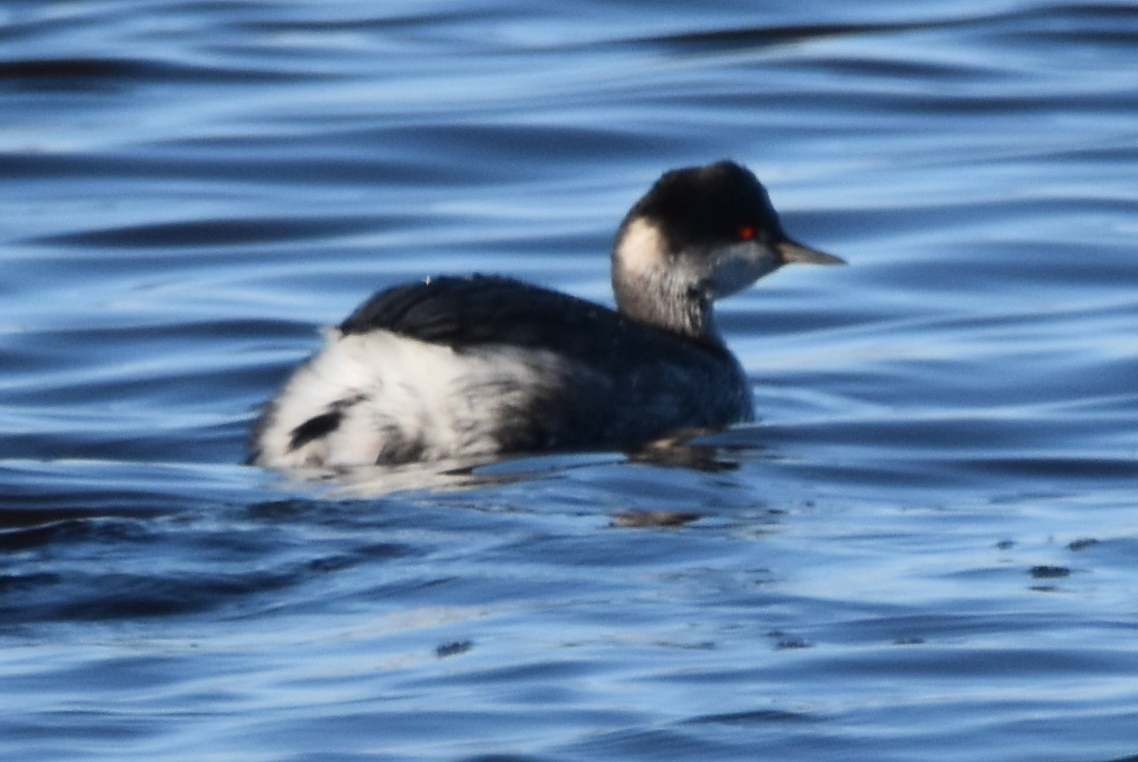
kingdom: Animalia
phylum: Chordata
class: Aves
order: Podicipediformes
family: Podicipedidae
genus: Podiceps
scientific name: Podiceps nigricollis
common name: Black-necked grebe
